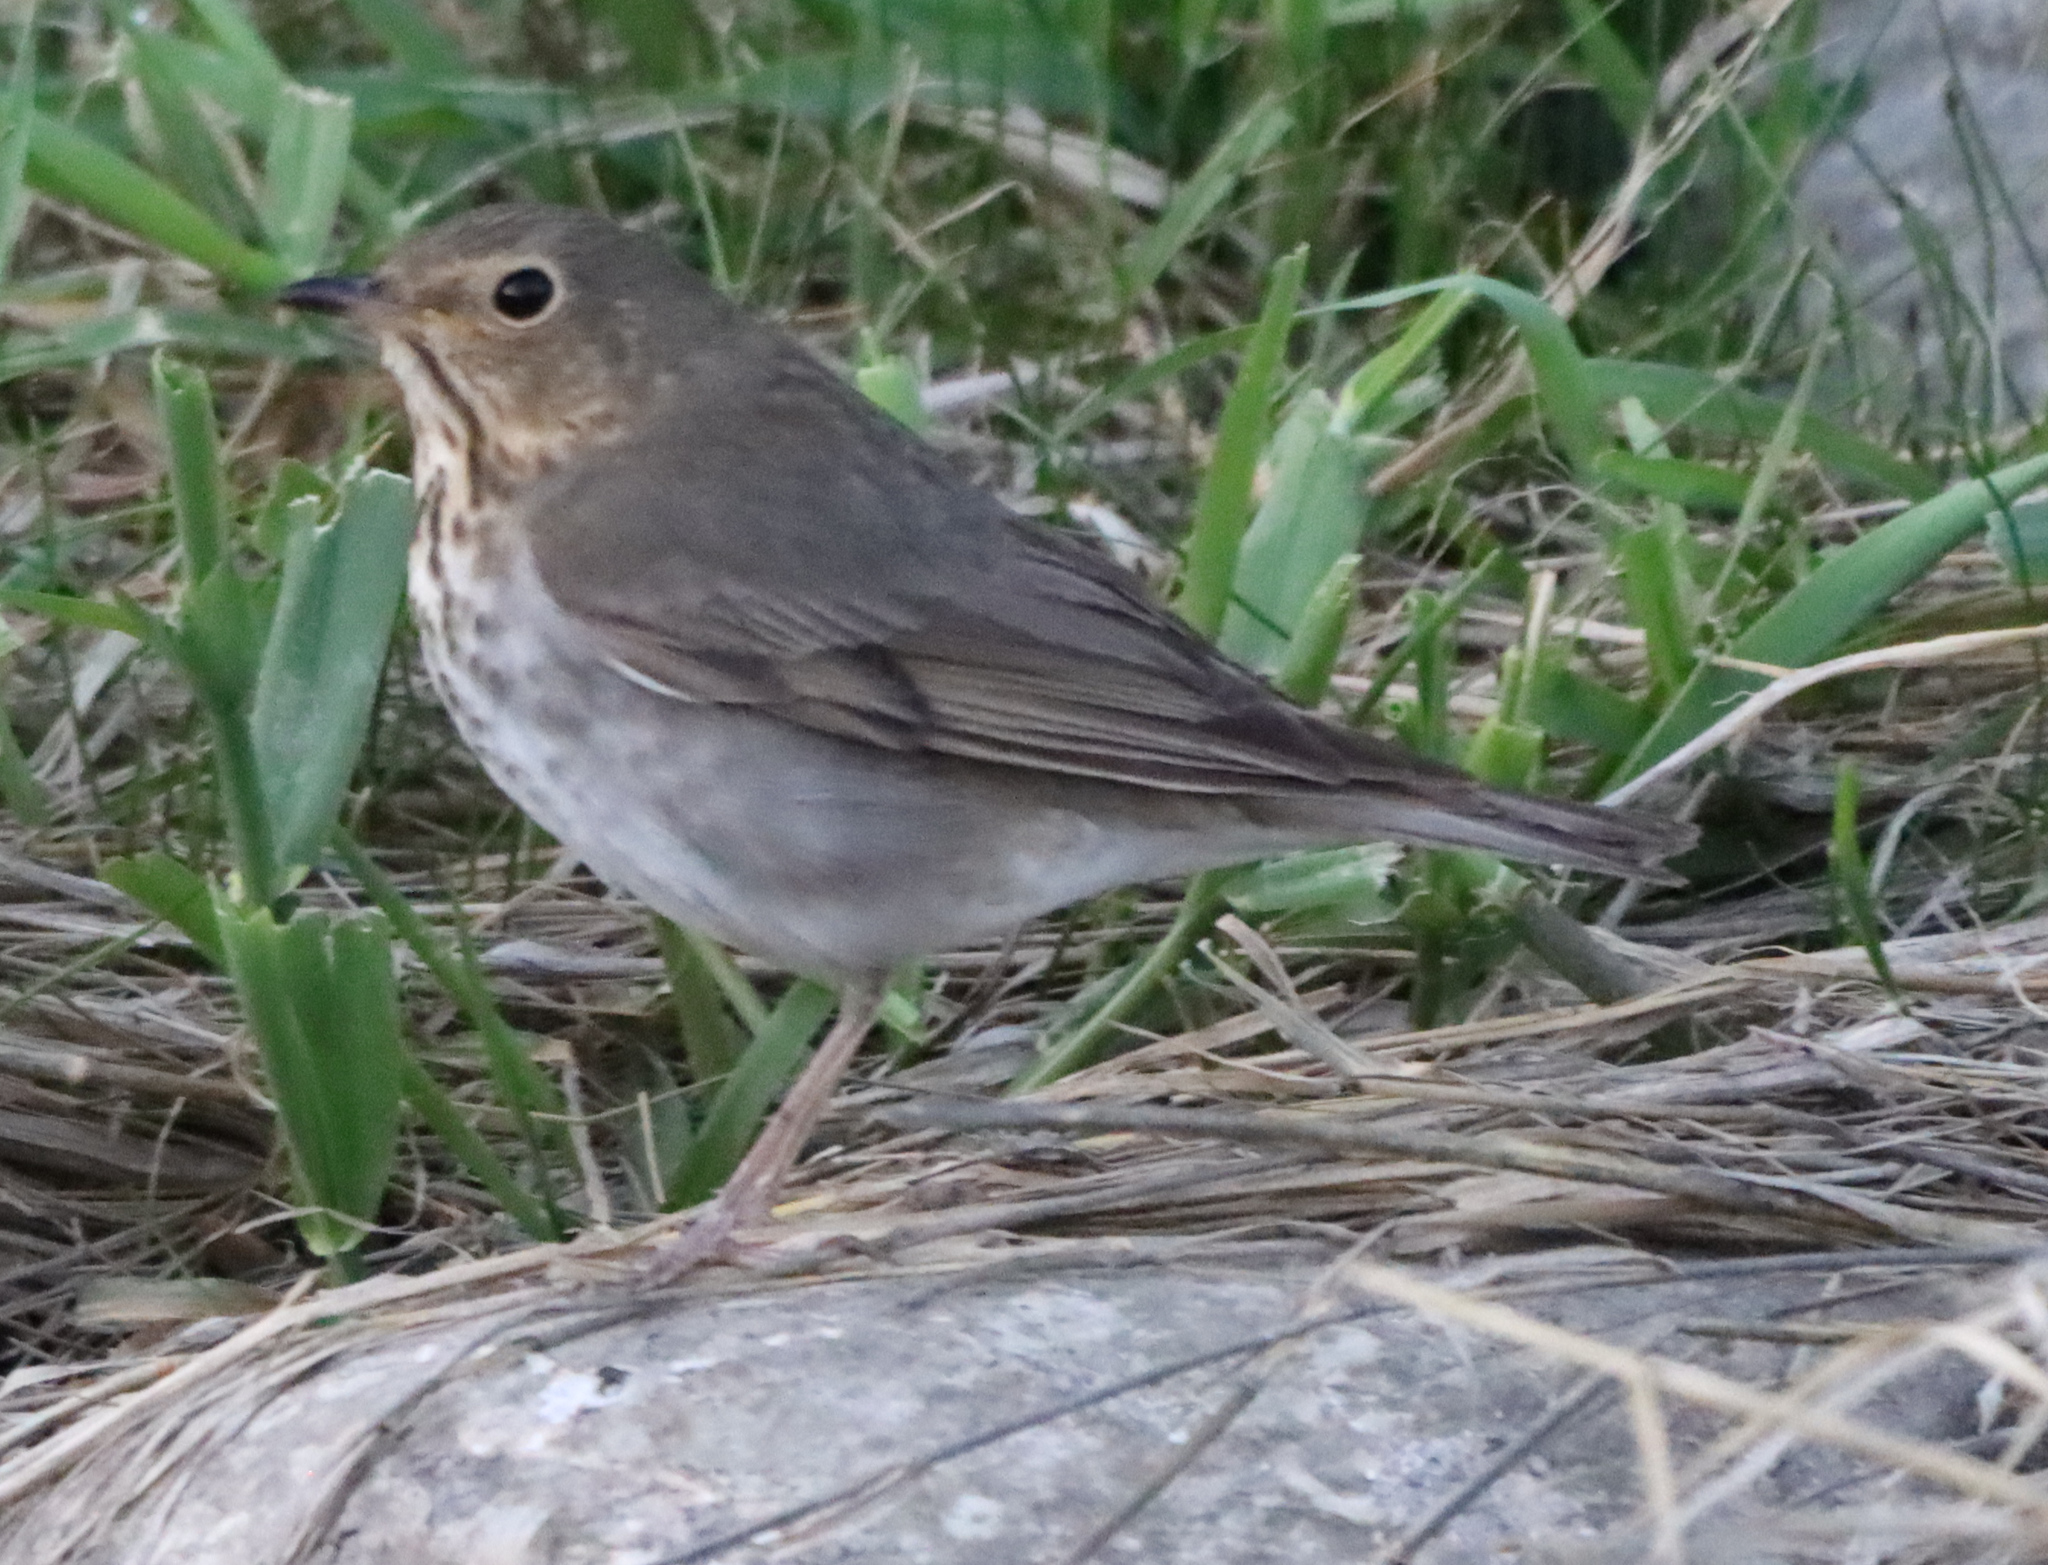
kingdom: Animalia
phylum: Chordata
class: Aves
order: Passeriformes
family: Turdidae
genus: Catharus
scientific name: Catharus ustulatus
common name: Swainson's thrush
